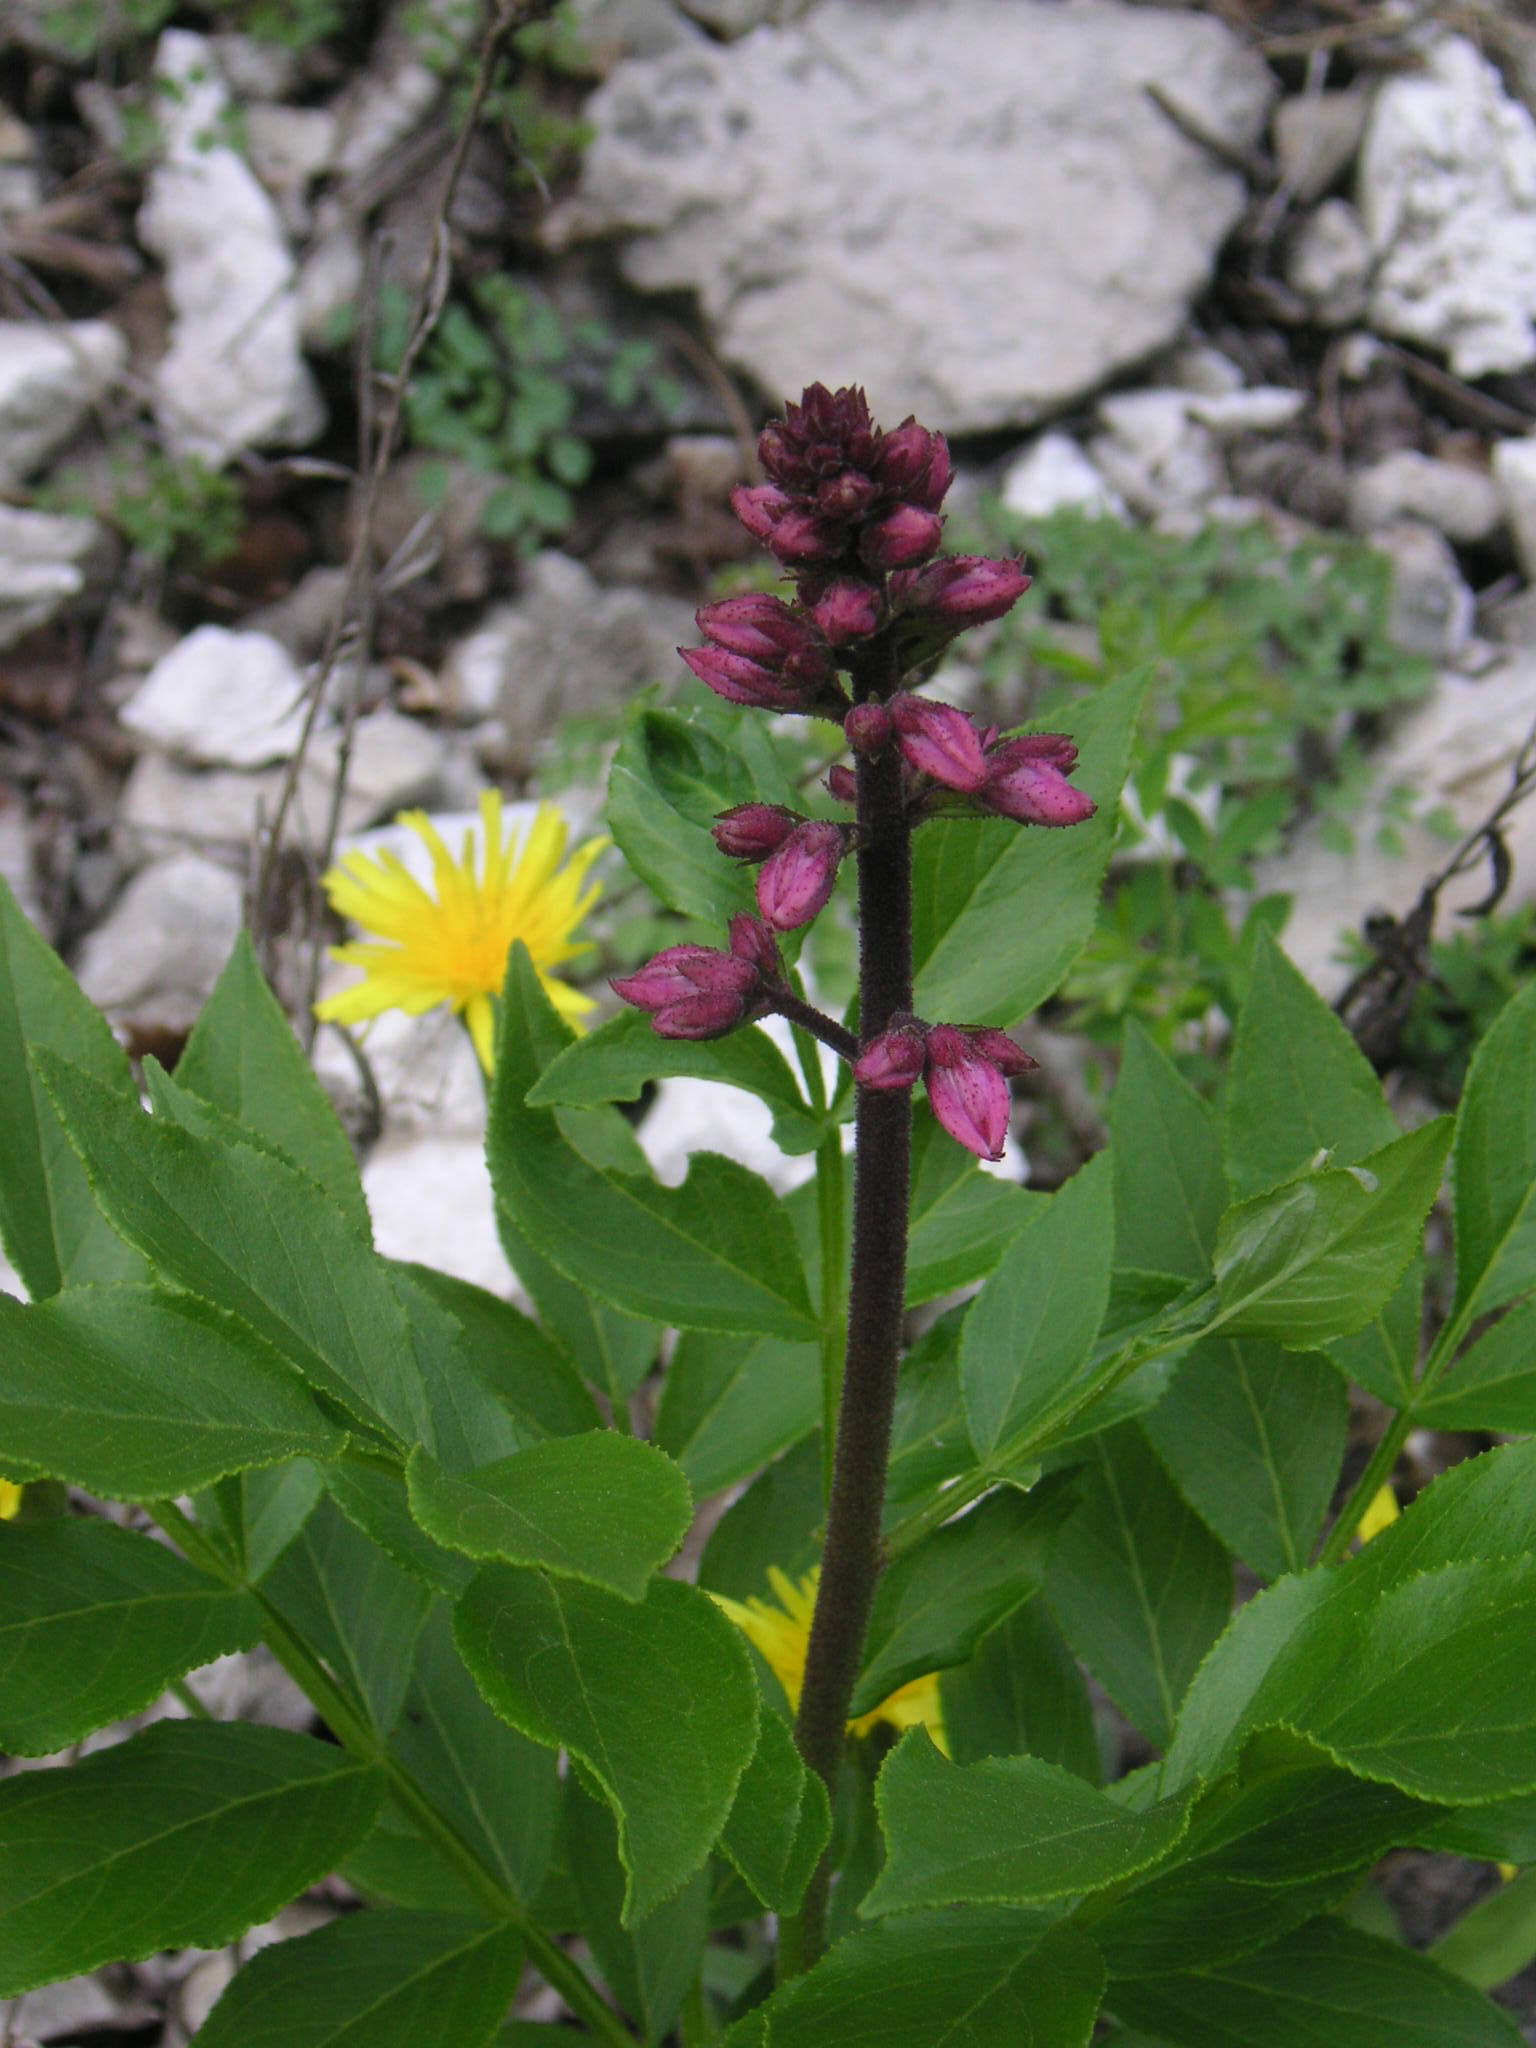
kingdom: Plantae
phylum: Tracheophyta
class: Magnoliopsida
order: Sapindales
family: Rutaceae
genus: Dictamnus
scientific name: Dictamnus albus
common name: Gasplant
